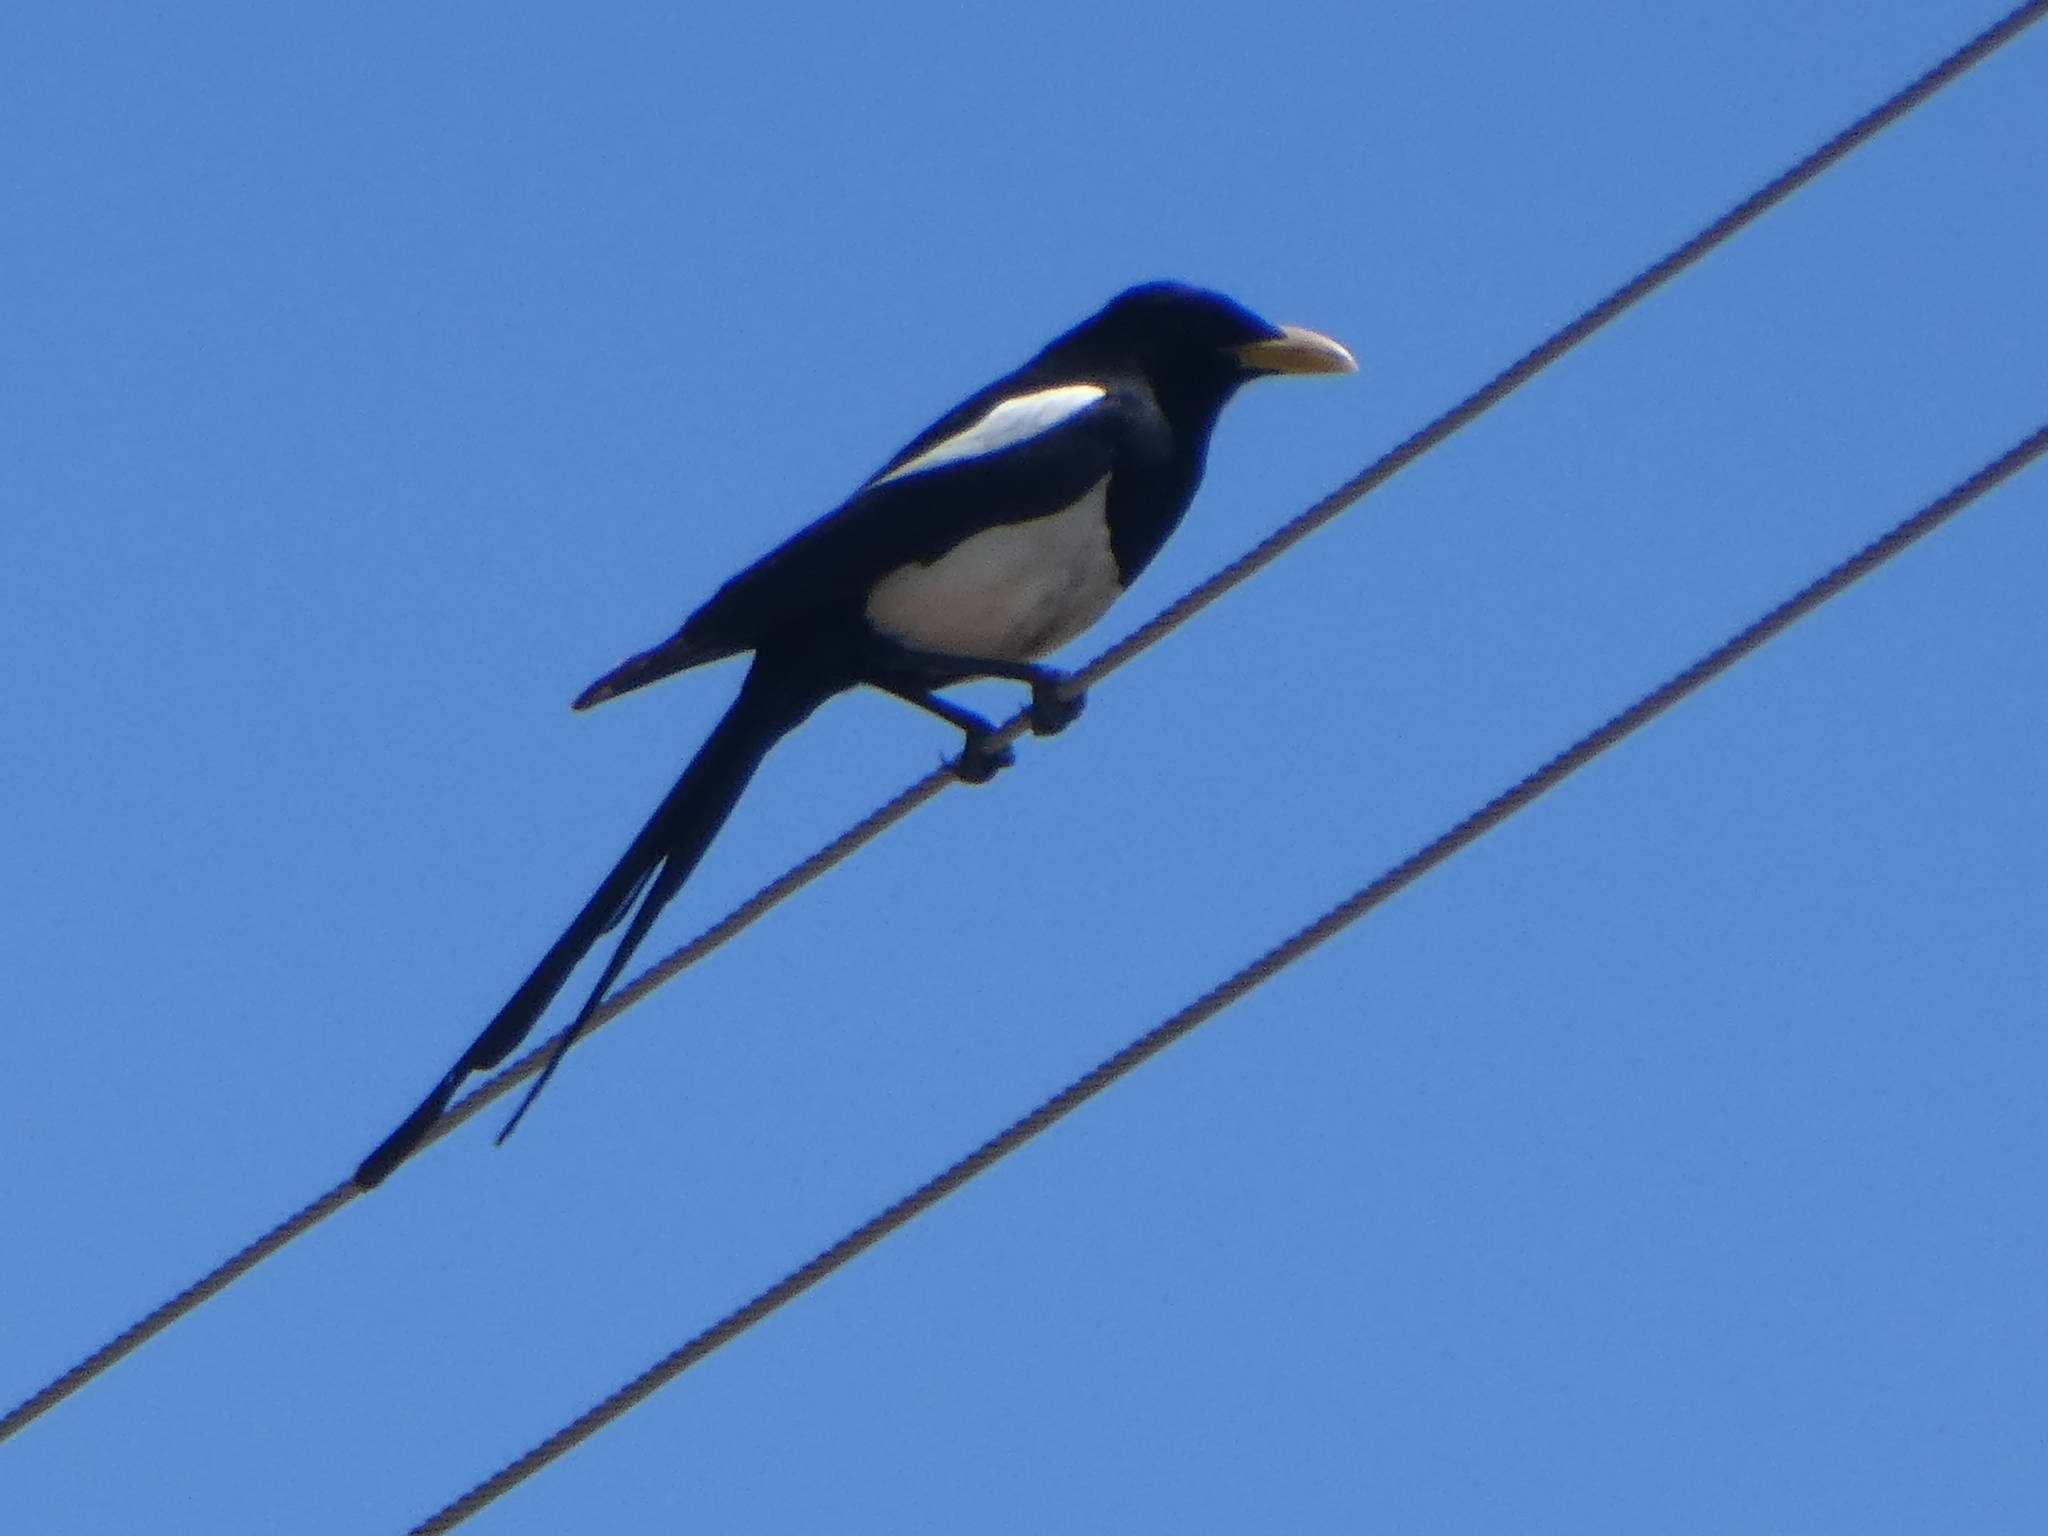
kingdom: Animalia
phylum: Chordata
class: Aves
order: Passeriformes
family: Corvidae
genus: Pica
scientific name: Pica nuttalli
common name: Yellow-billed magpie
